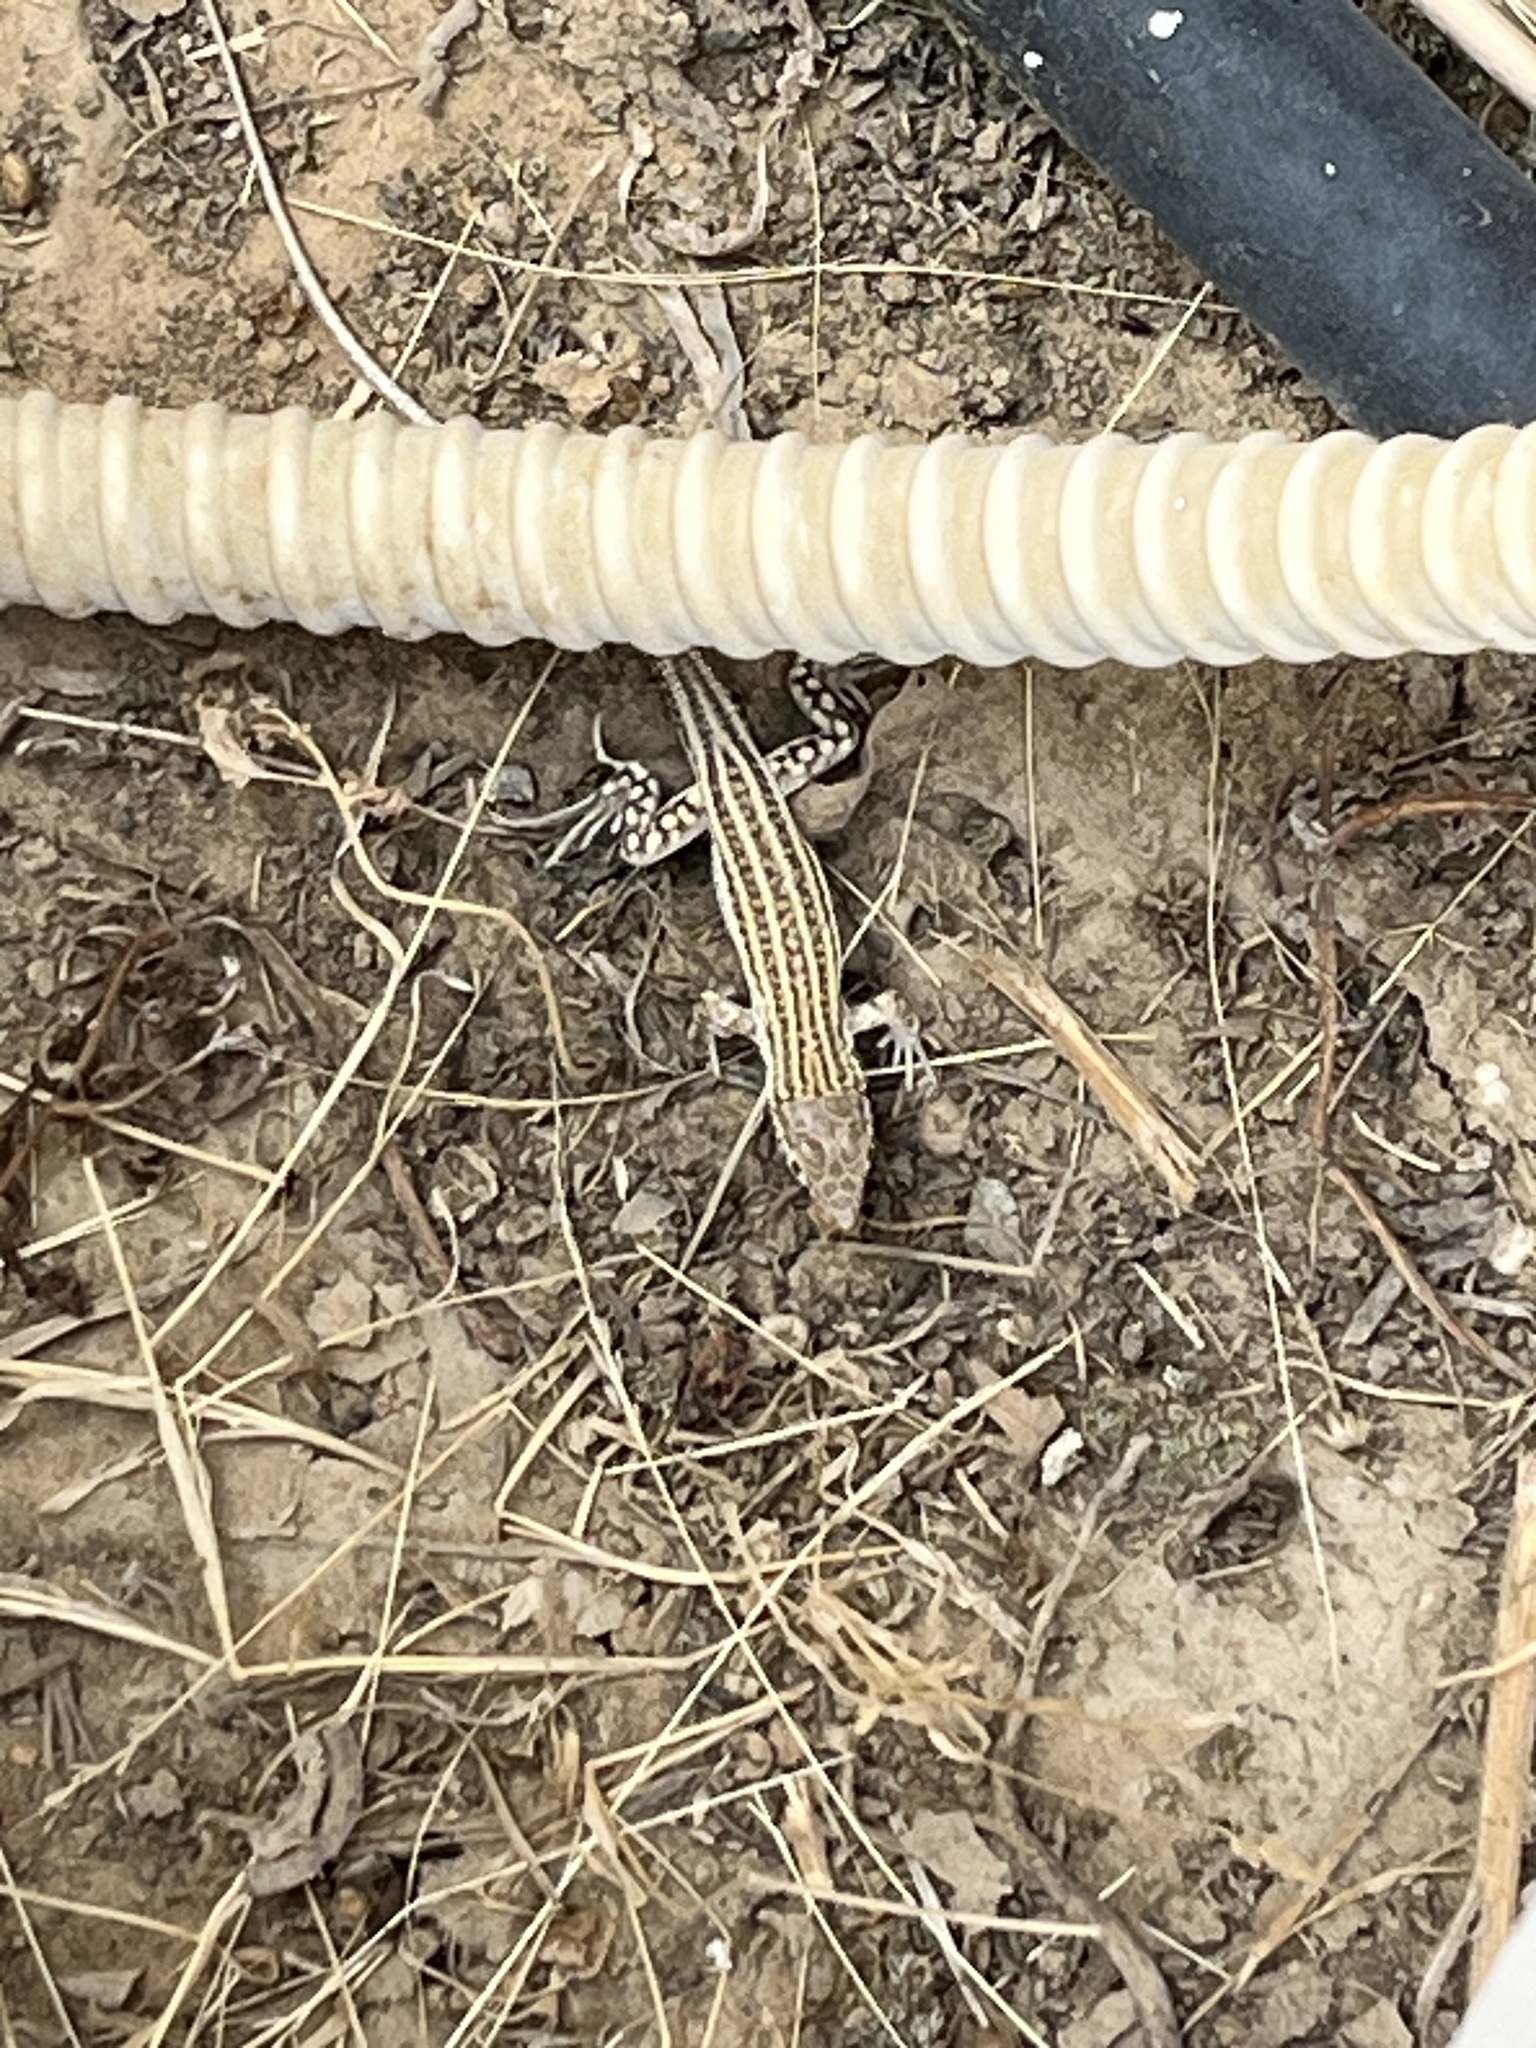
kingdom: Animalia
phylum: Chordata
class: Squamata
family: Lacertidae
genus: Acanthodactylus
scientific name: Acanthodactylus boskianus
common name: Bosc’s fringe-toed lizard
